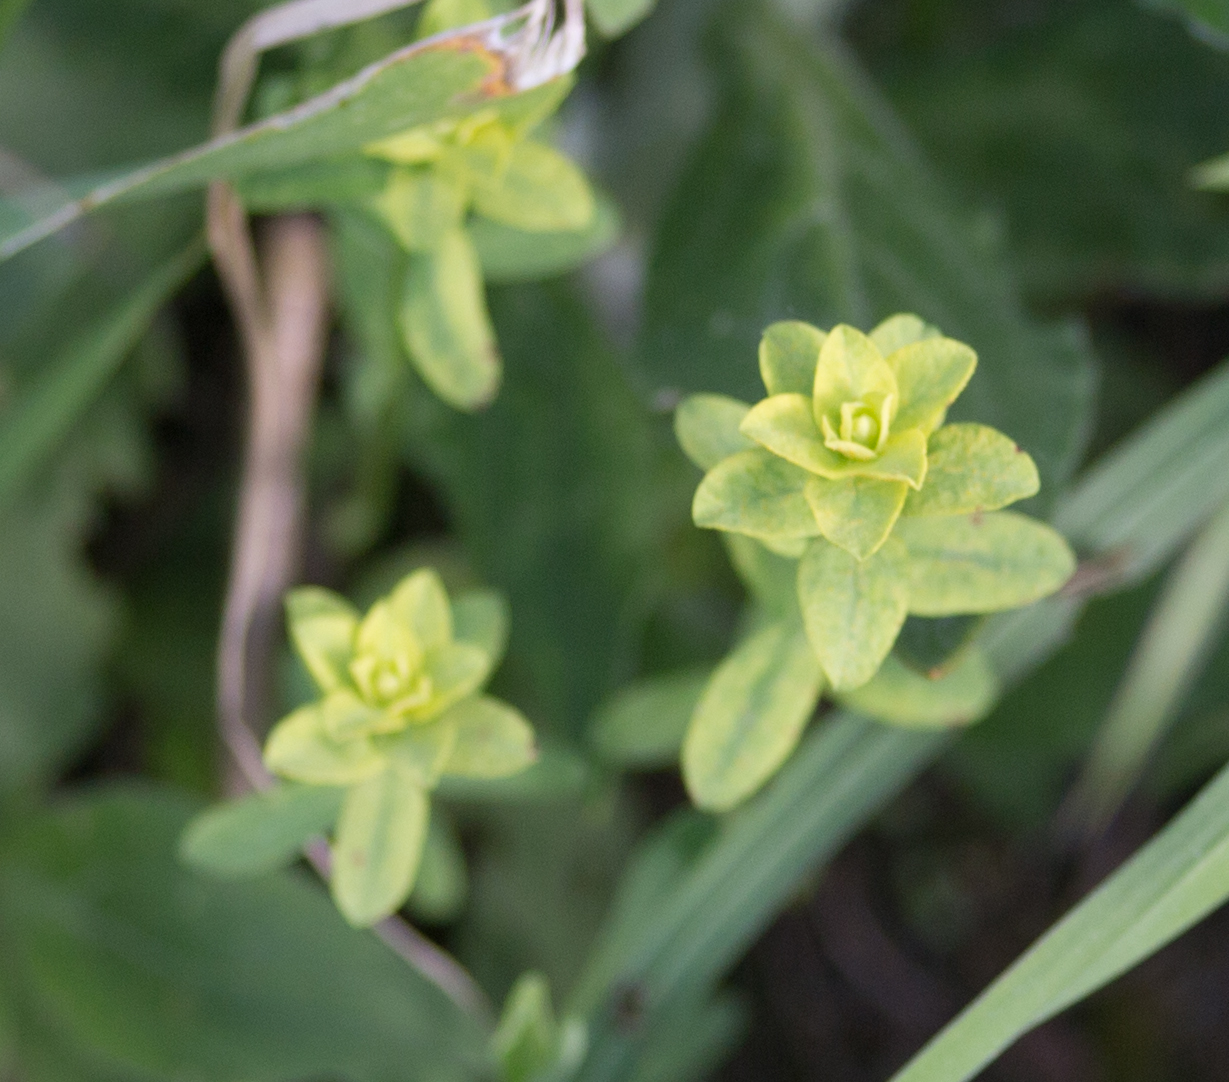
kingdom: Plantae
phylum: Tracheophyta
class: Magnoliopsida
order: Malpighiales
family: Euphorbiaceae
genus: Euphorbia
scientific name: Euphorbia virgata
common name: Leafy spurge
